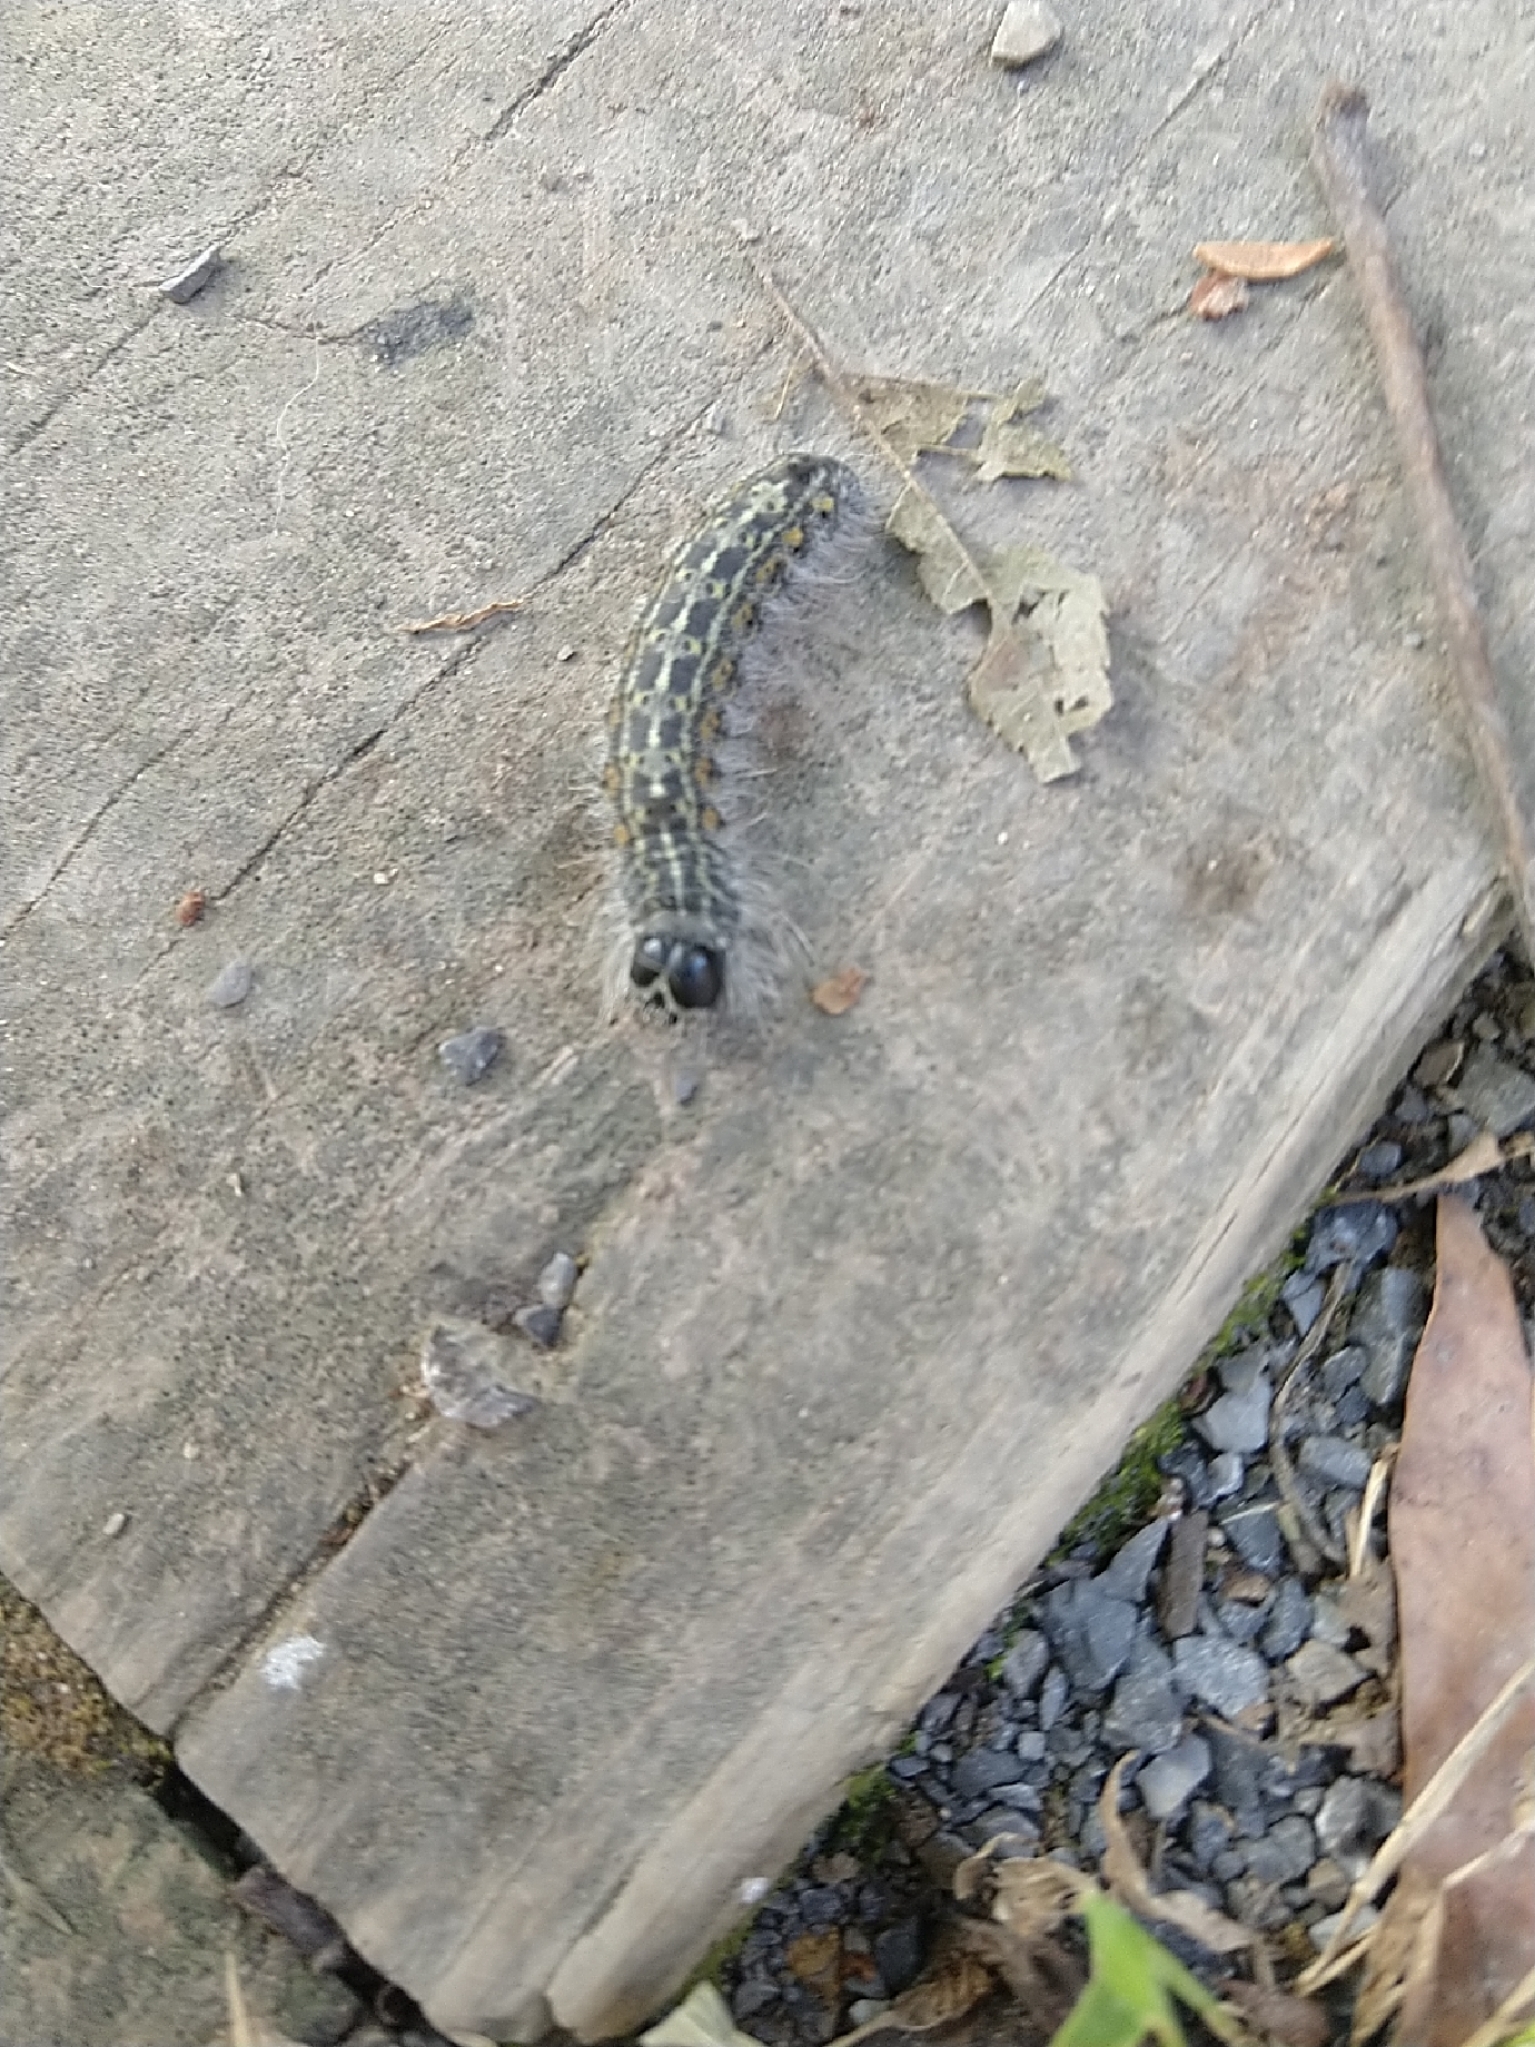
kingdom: Animalia
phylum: Arthropoda
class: Insecta
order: Lepidoptera
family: Noctuidae
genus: Acronicta
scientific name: Acronicta lobeliae
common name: Greater oak dagger
